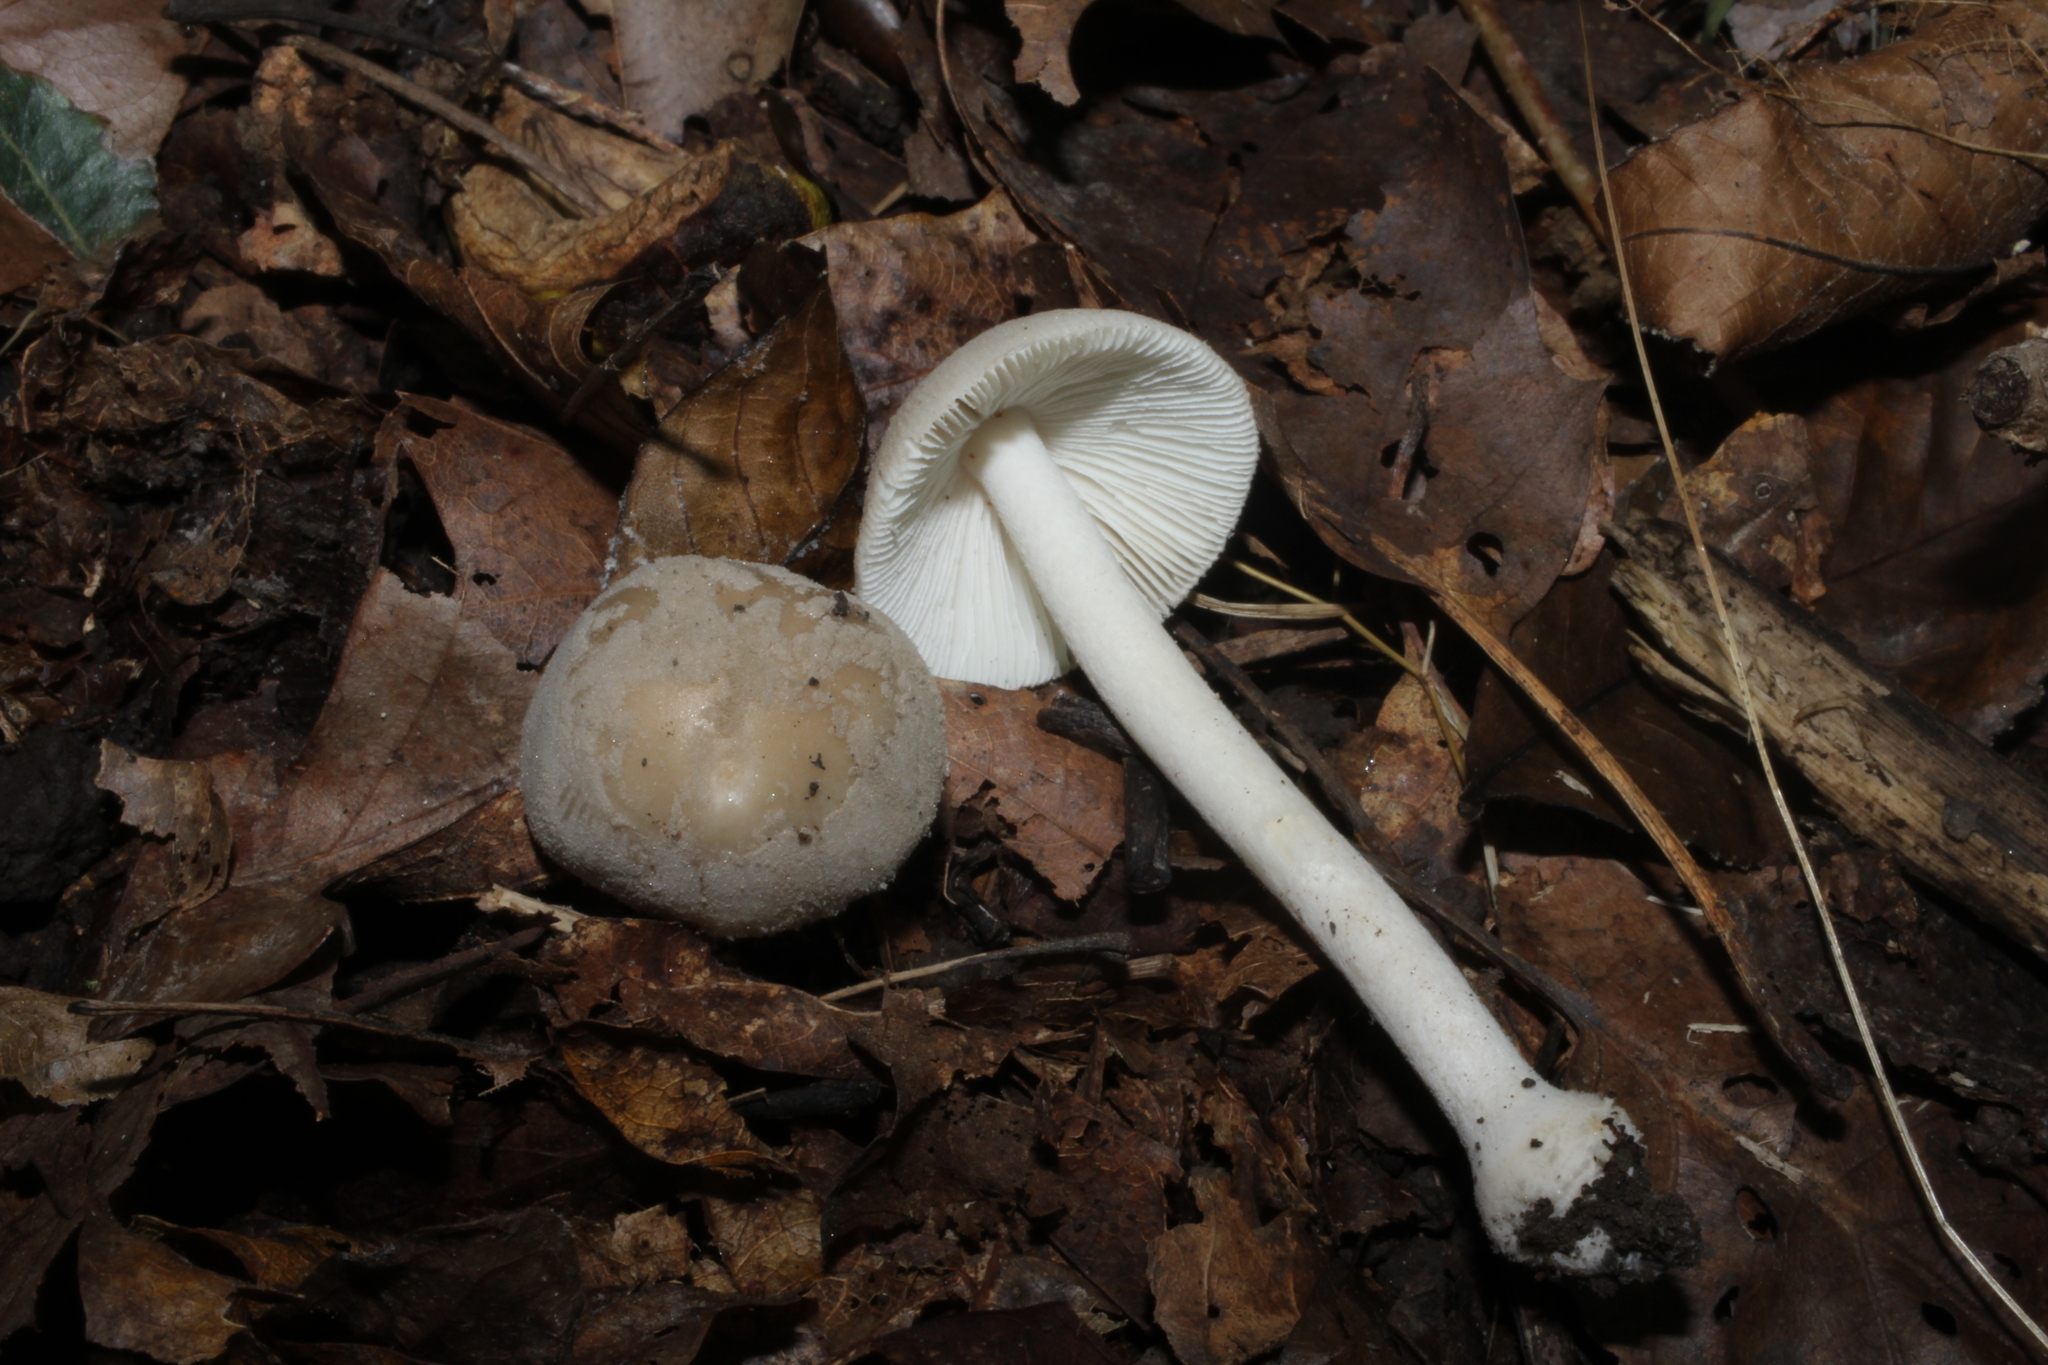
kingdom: Fungi
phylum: Basidiomycota
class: Agaricomycetes
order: Agaricales
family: Amanitaceae
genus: Amanita
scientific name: Amanita farinosa
